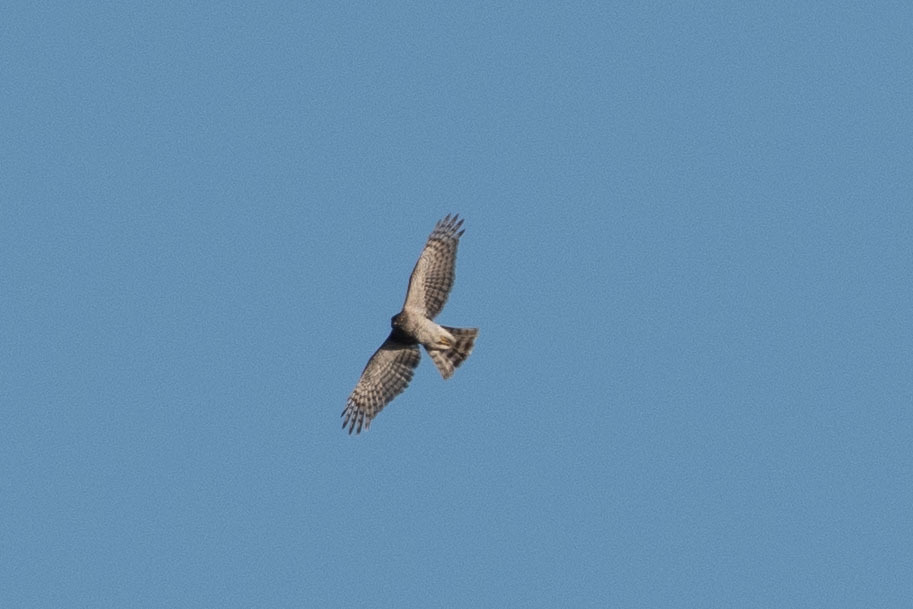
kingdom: Animalia
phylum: Chordata
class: Aves
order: Accipitriformes
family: Accipitridae
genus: Accipiter
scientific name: Accipiter nisus
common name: Eurasian sparrowhawk
